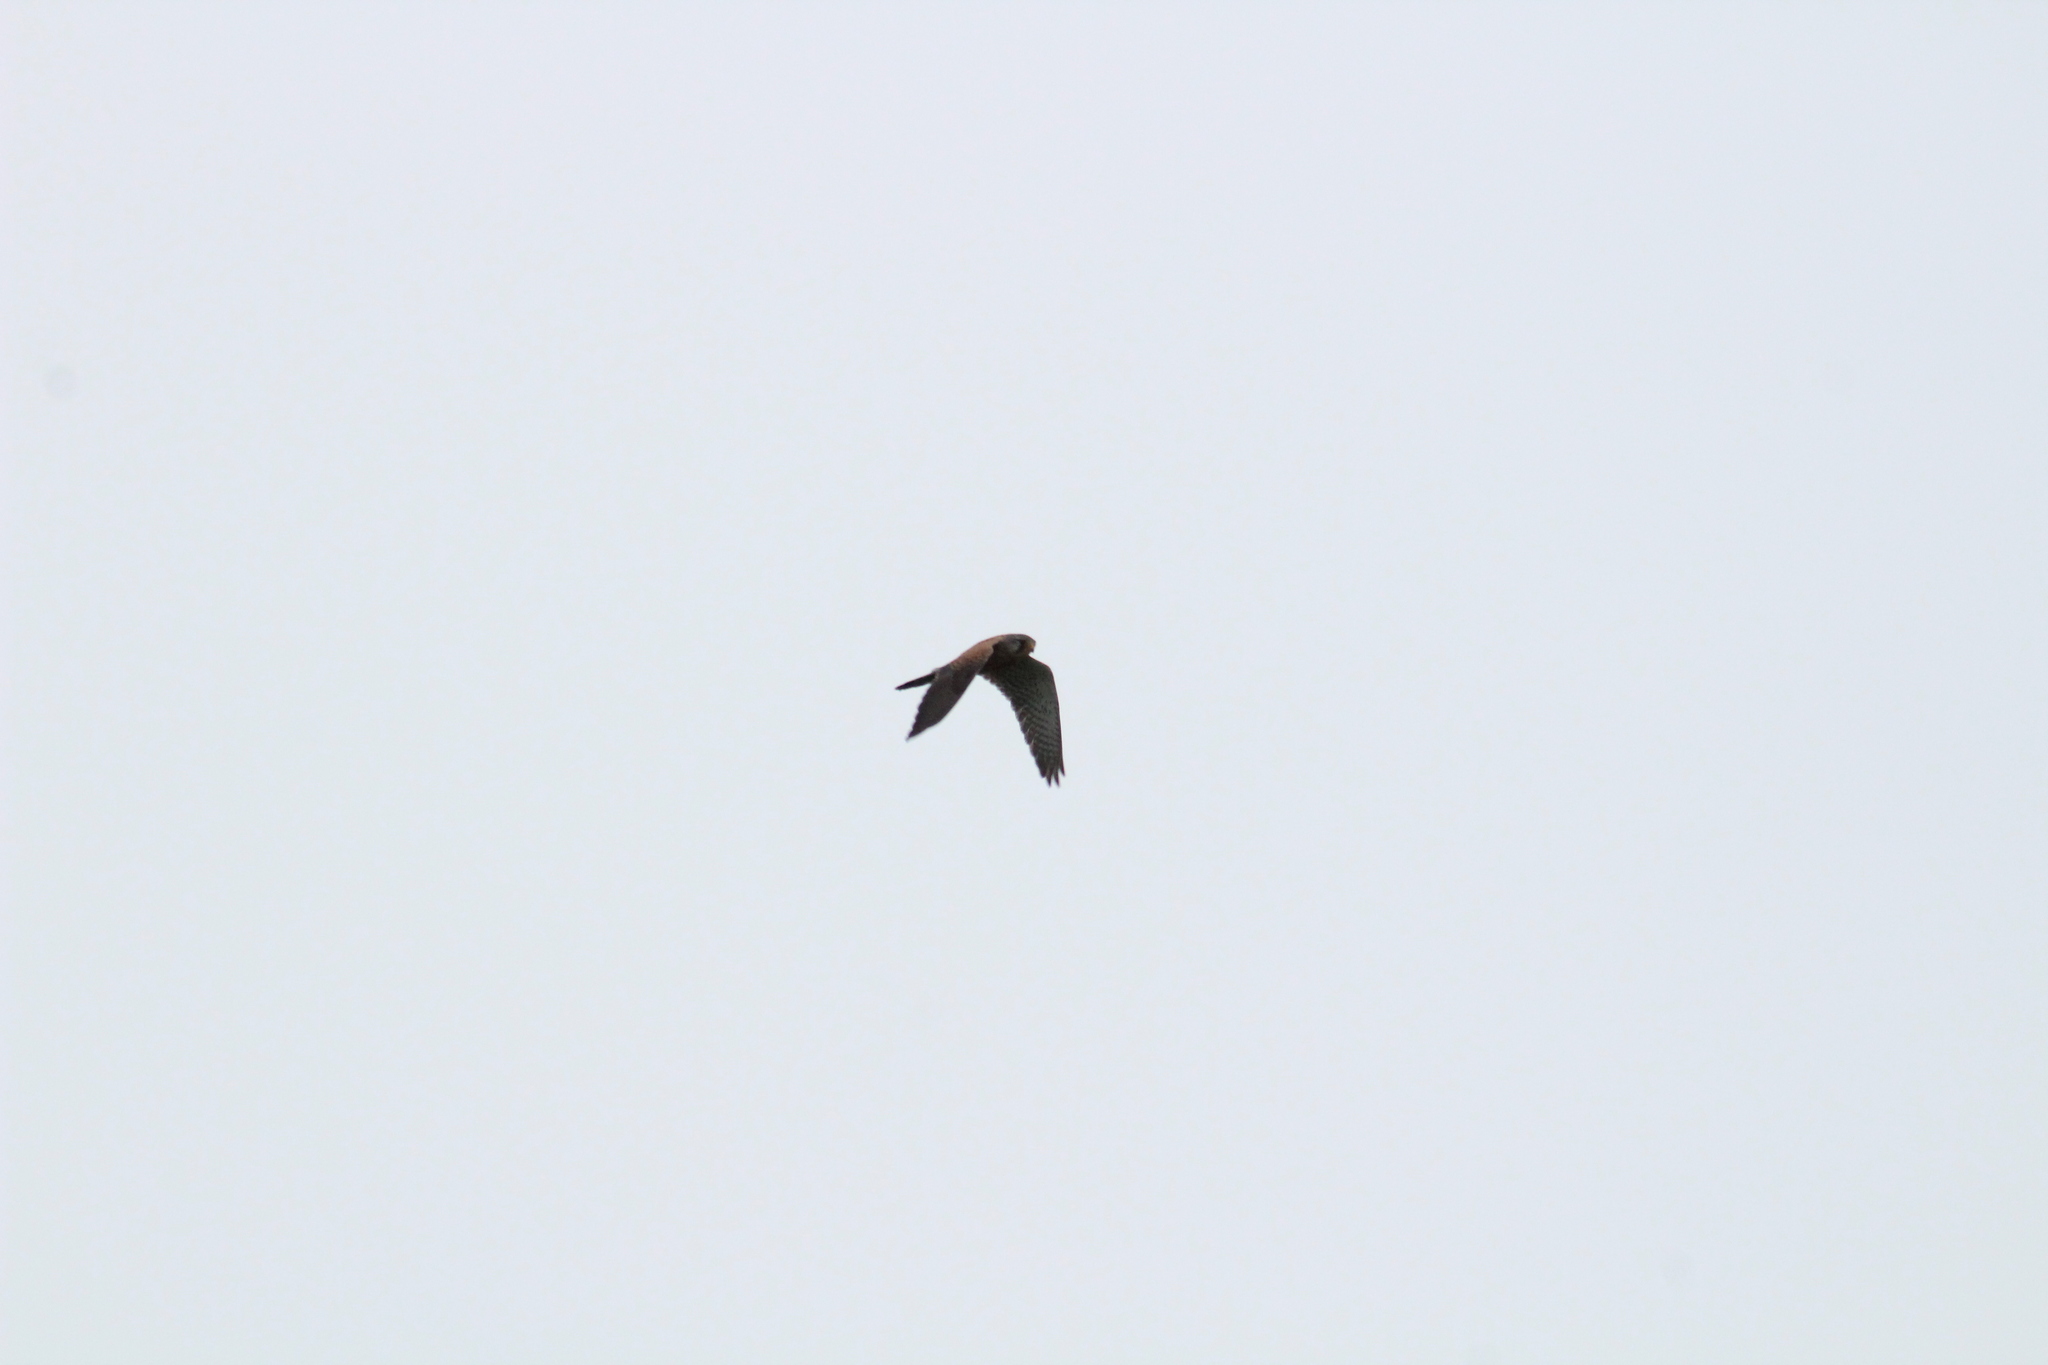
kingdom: Animalia
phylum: Chordata
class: Aves
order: Falconiformes
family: Falconidae
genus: Falco
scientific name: Falco tinnunculus
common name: Common kestrel
